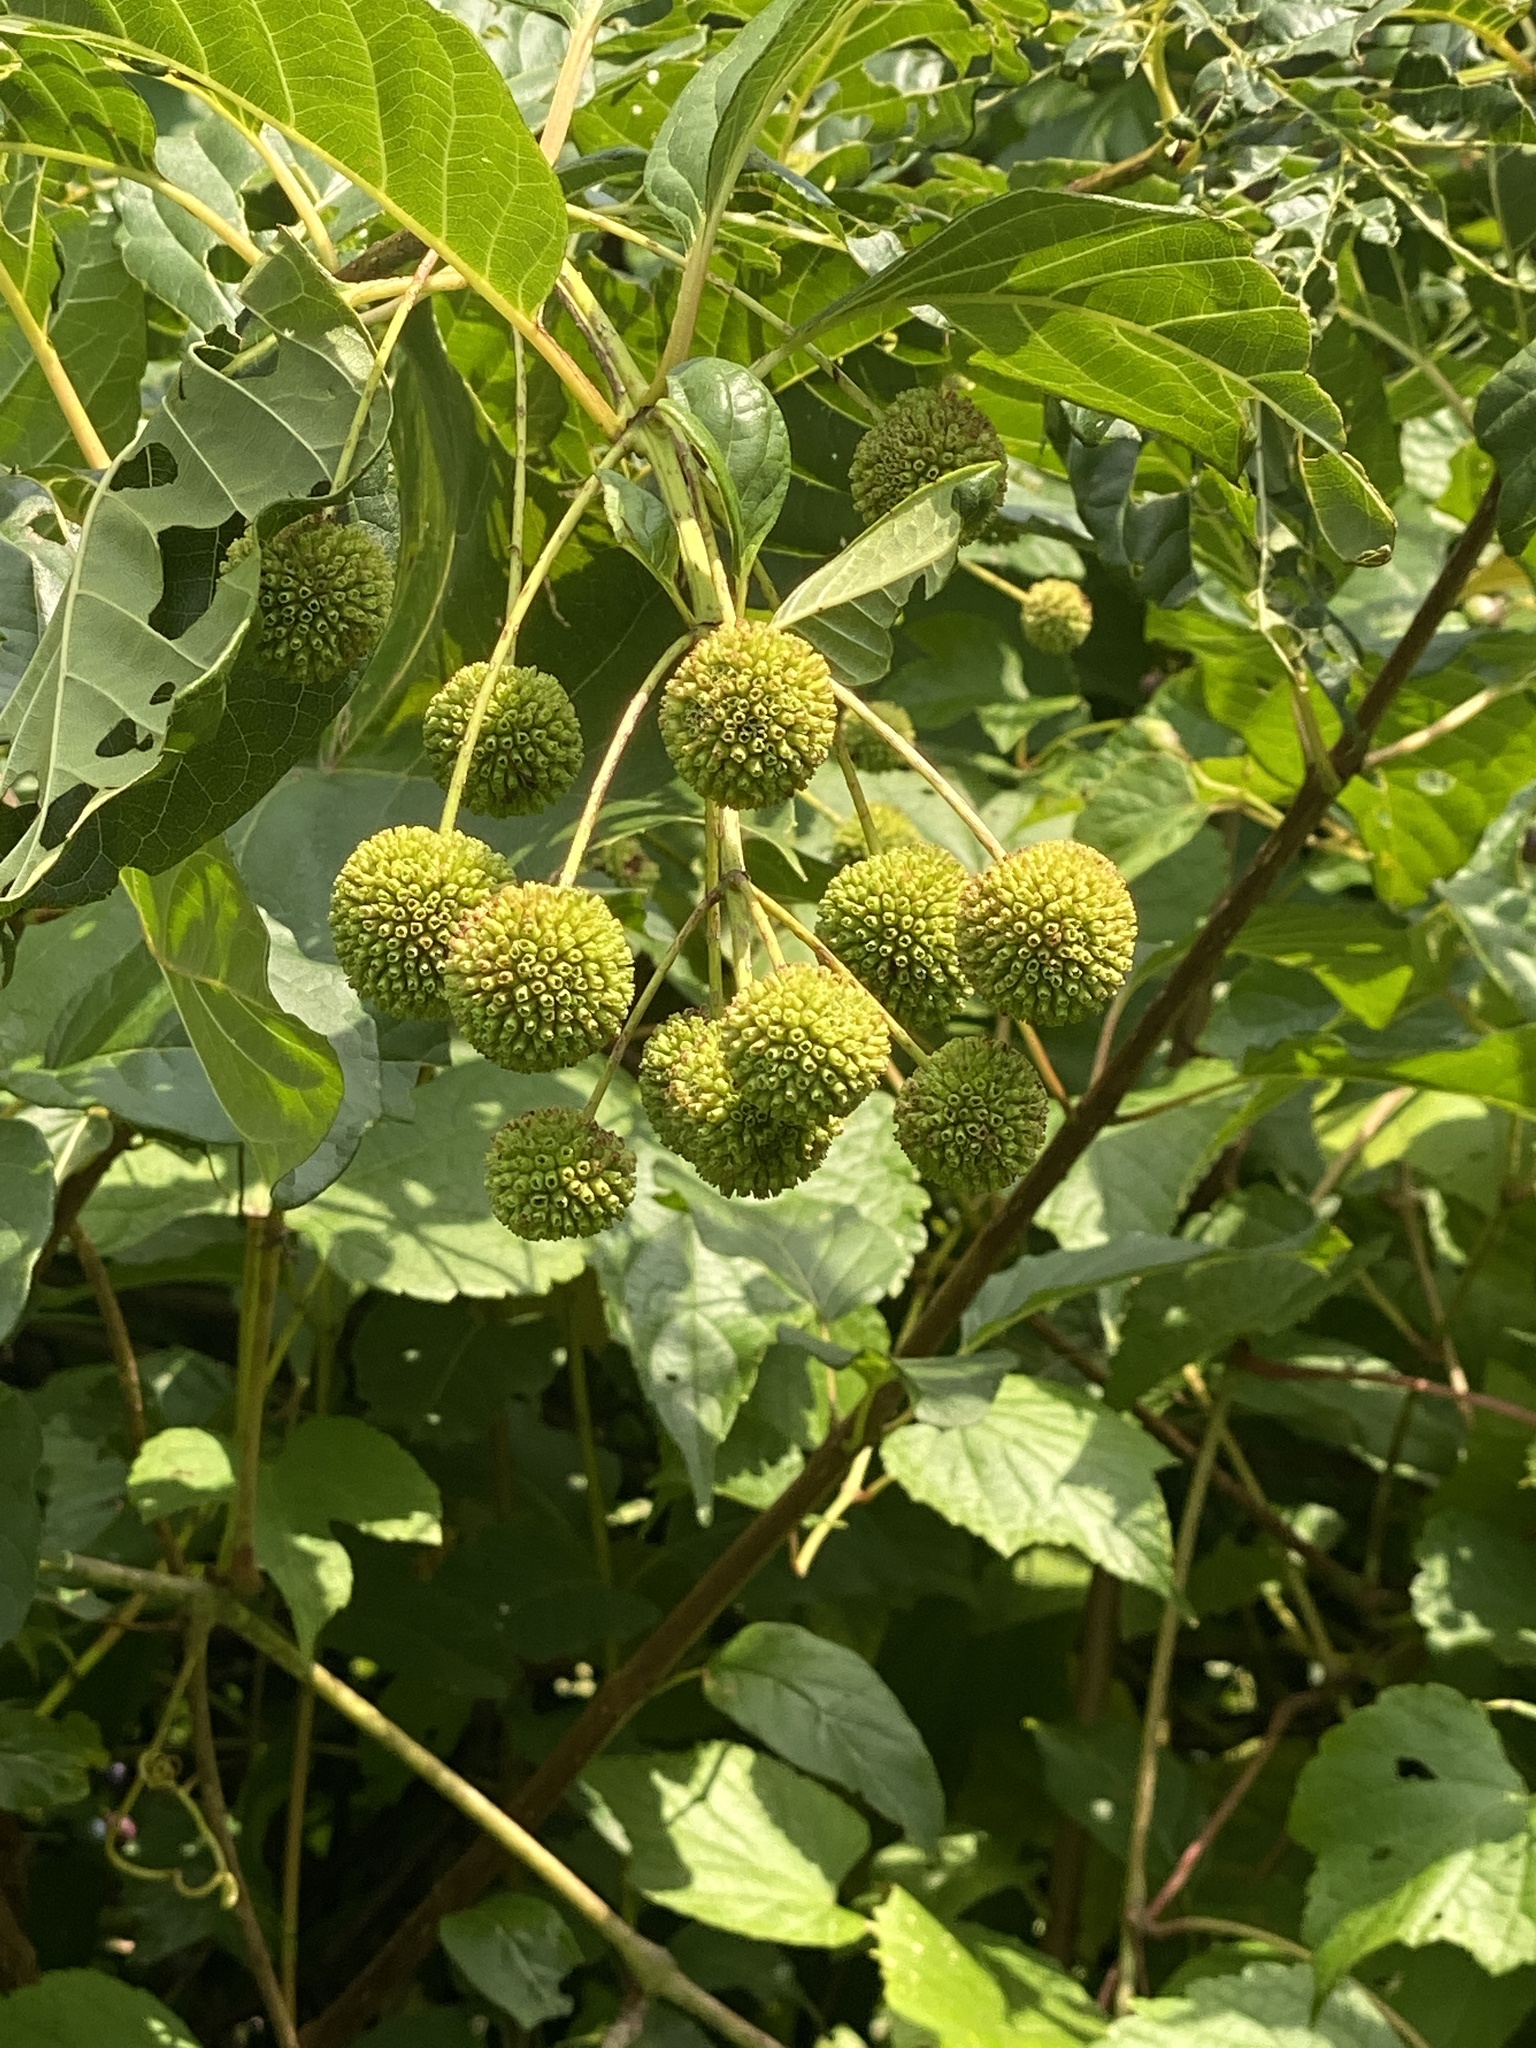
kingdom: Plantae
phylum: Tracheophyta
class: Magnoliopsida
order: Gentianales
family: Rubiaceae
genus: Cephalanthus
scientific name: Cephalanthus occidentalis
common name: Button-willow
